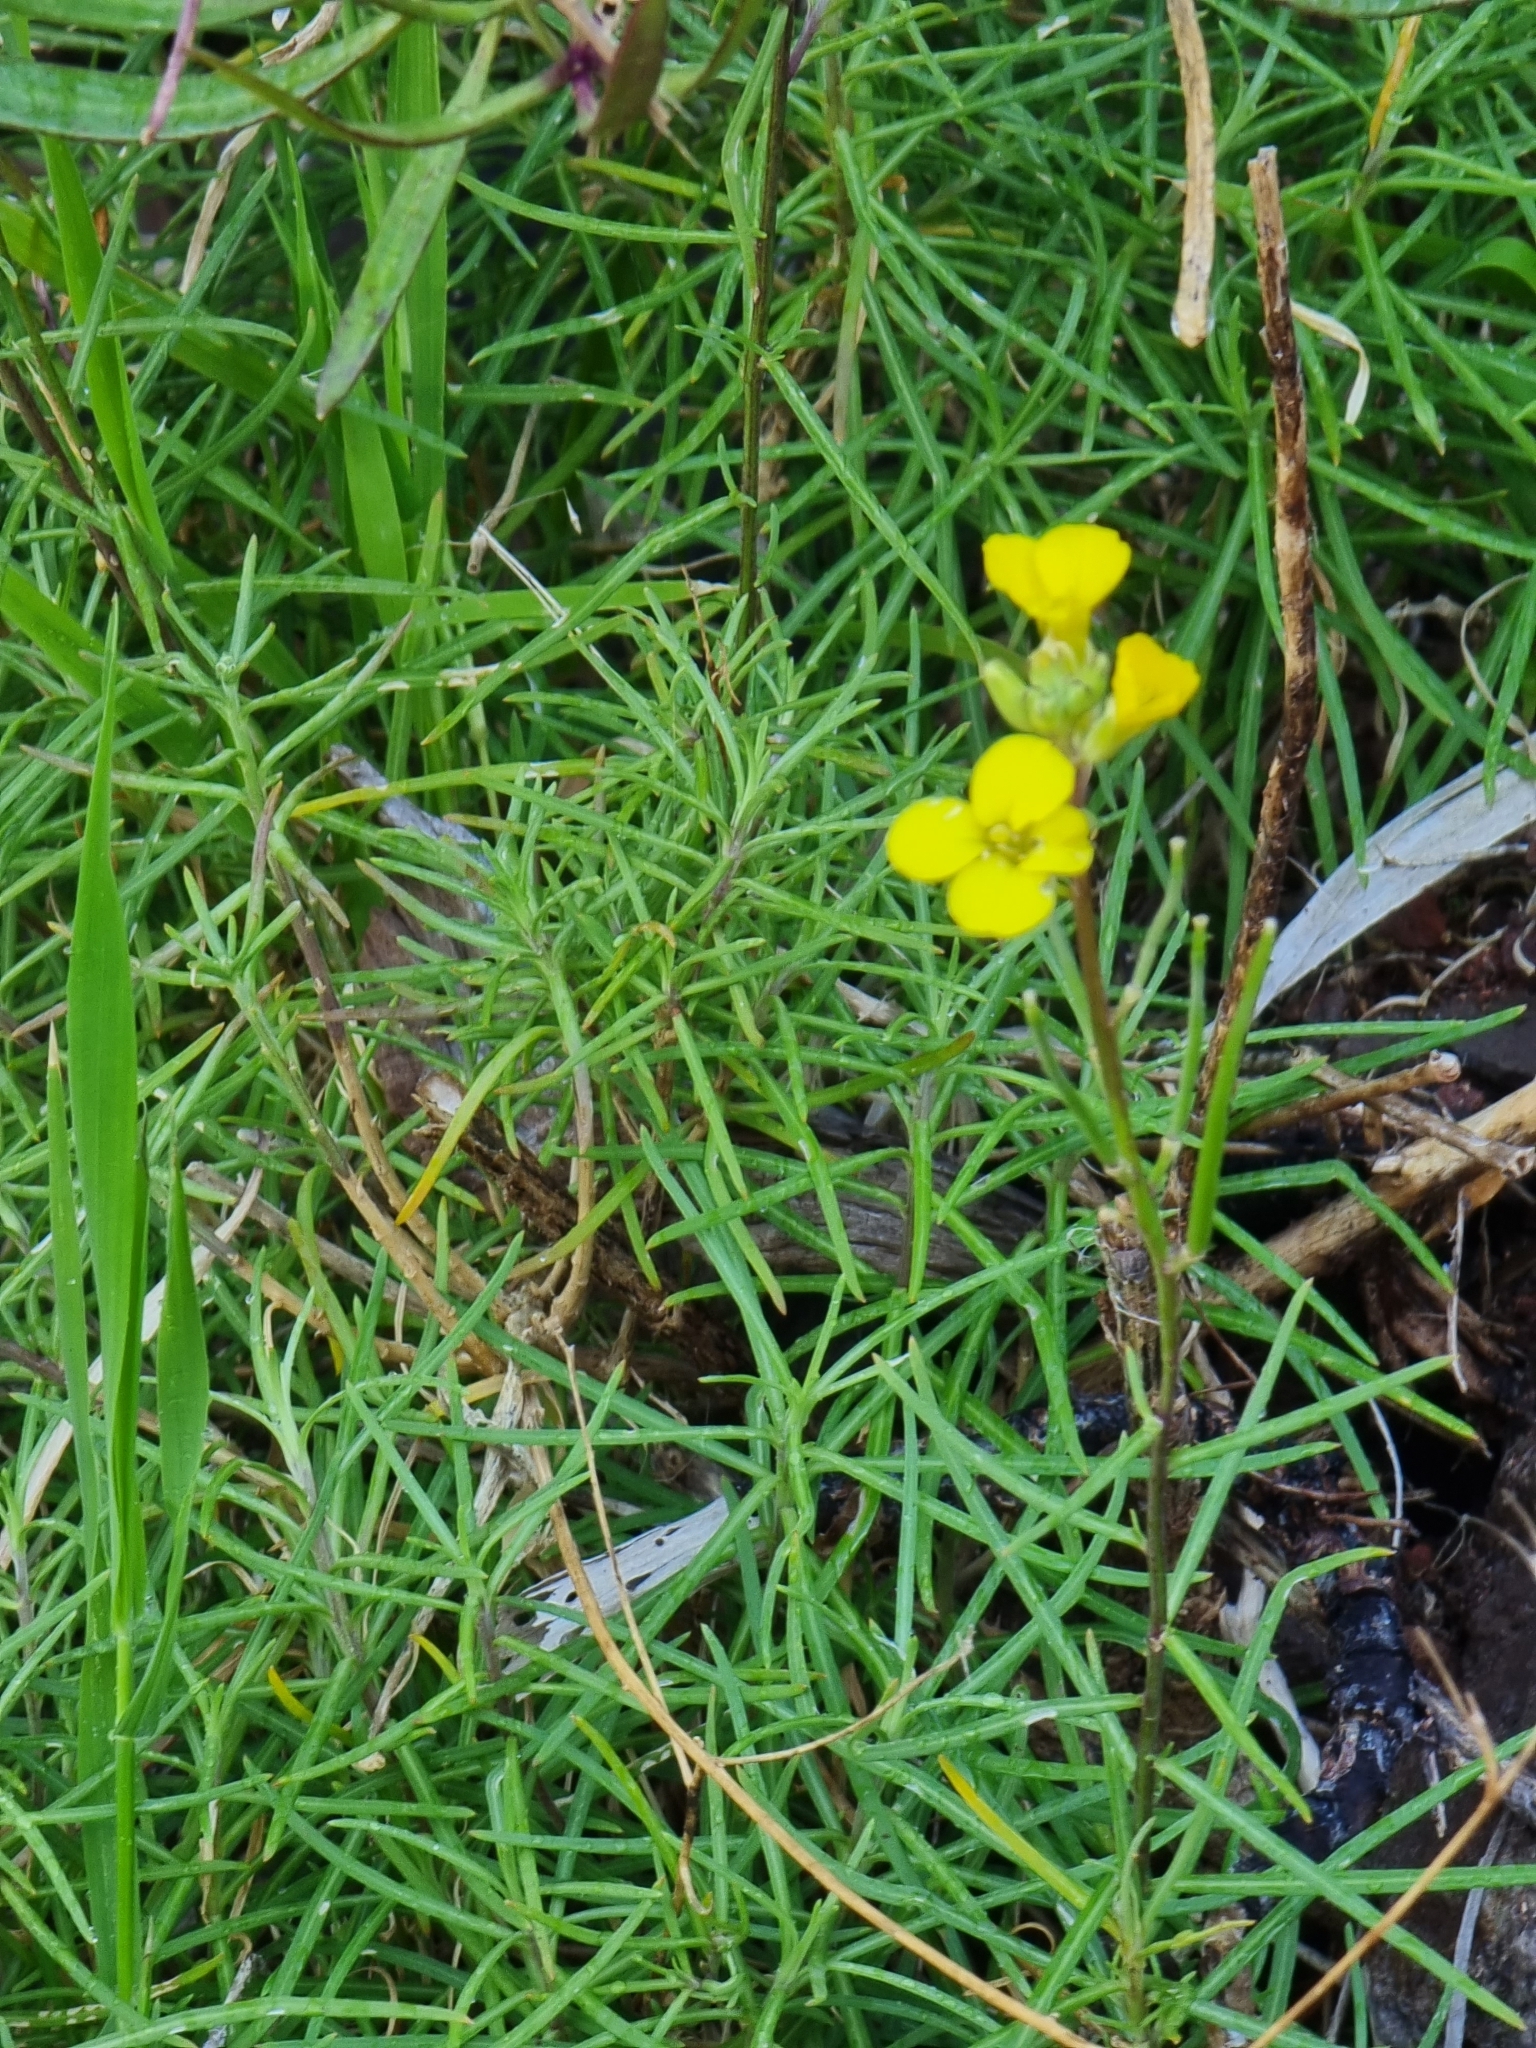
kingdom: Plantae
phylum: Tracheophyta
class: Magnoliopsida
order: Brassicales
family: Brassicaceae
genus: Erysimum
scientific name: Erysimum maderense
